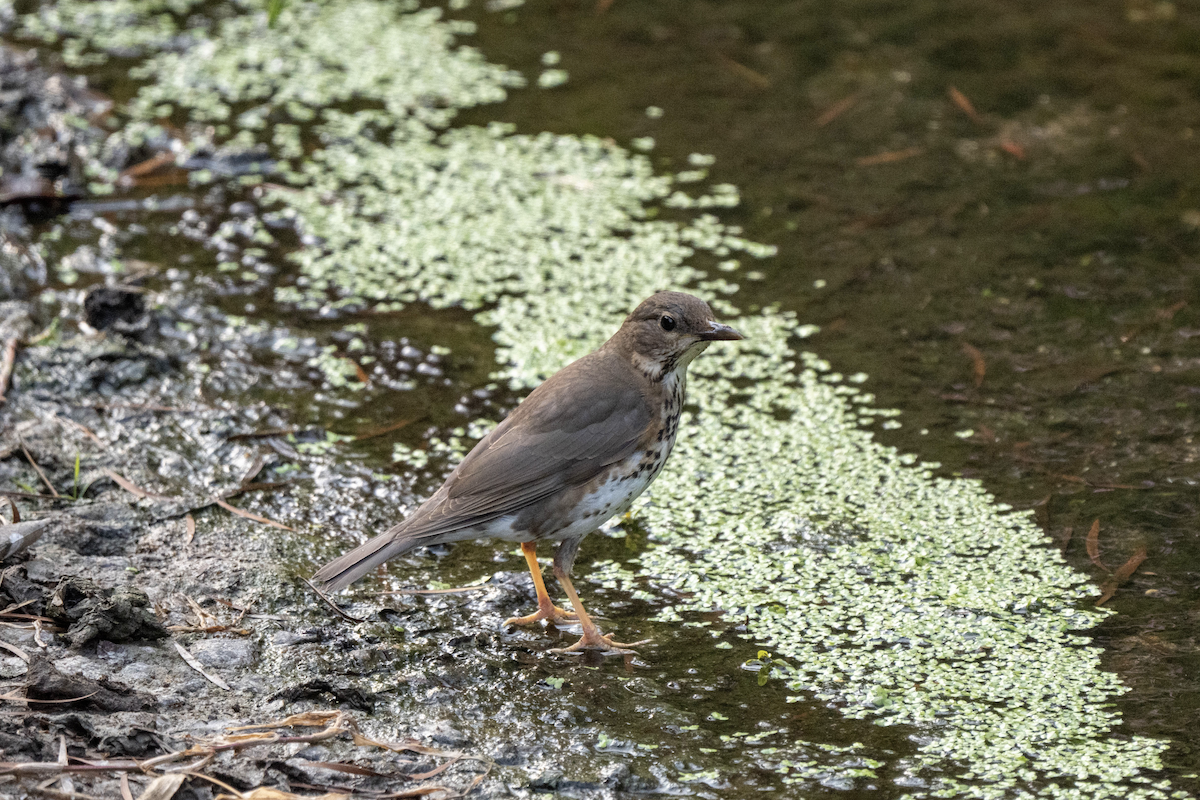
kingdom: Animalia
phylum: Chordata
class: Aves
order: Passeriformes
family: Turdidae
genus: Turdus
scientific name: Turdus cardis
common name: Japanese thrush
